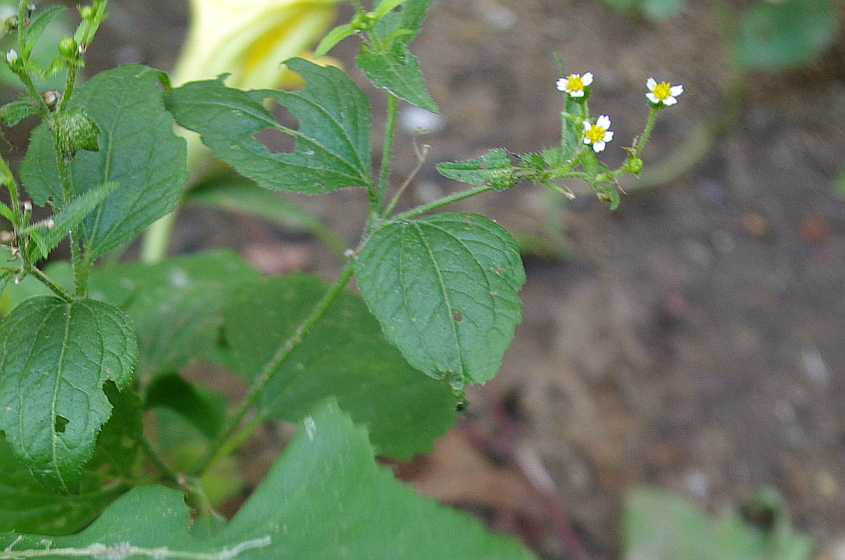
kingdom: Plantae
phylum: Tracheophyta
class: Magnoliopsida
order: Asterales
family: Asteraceae
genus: Galinsoga
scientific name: Galinsoga quadriradiata
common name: Shaggy soldier
